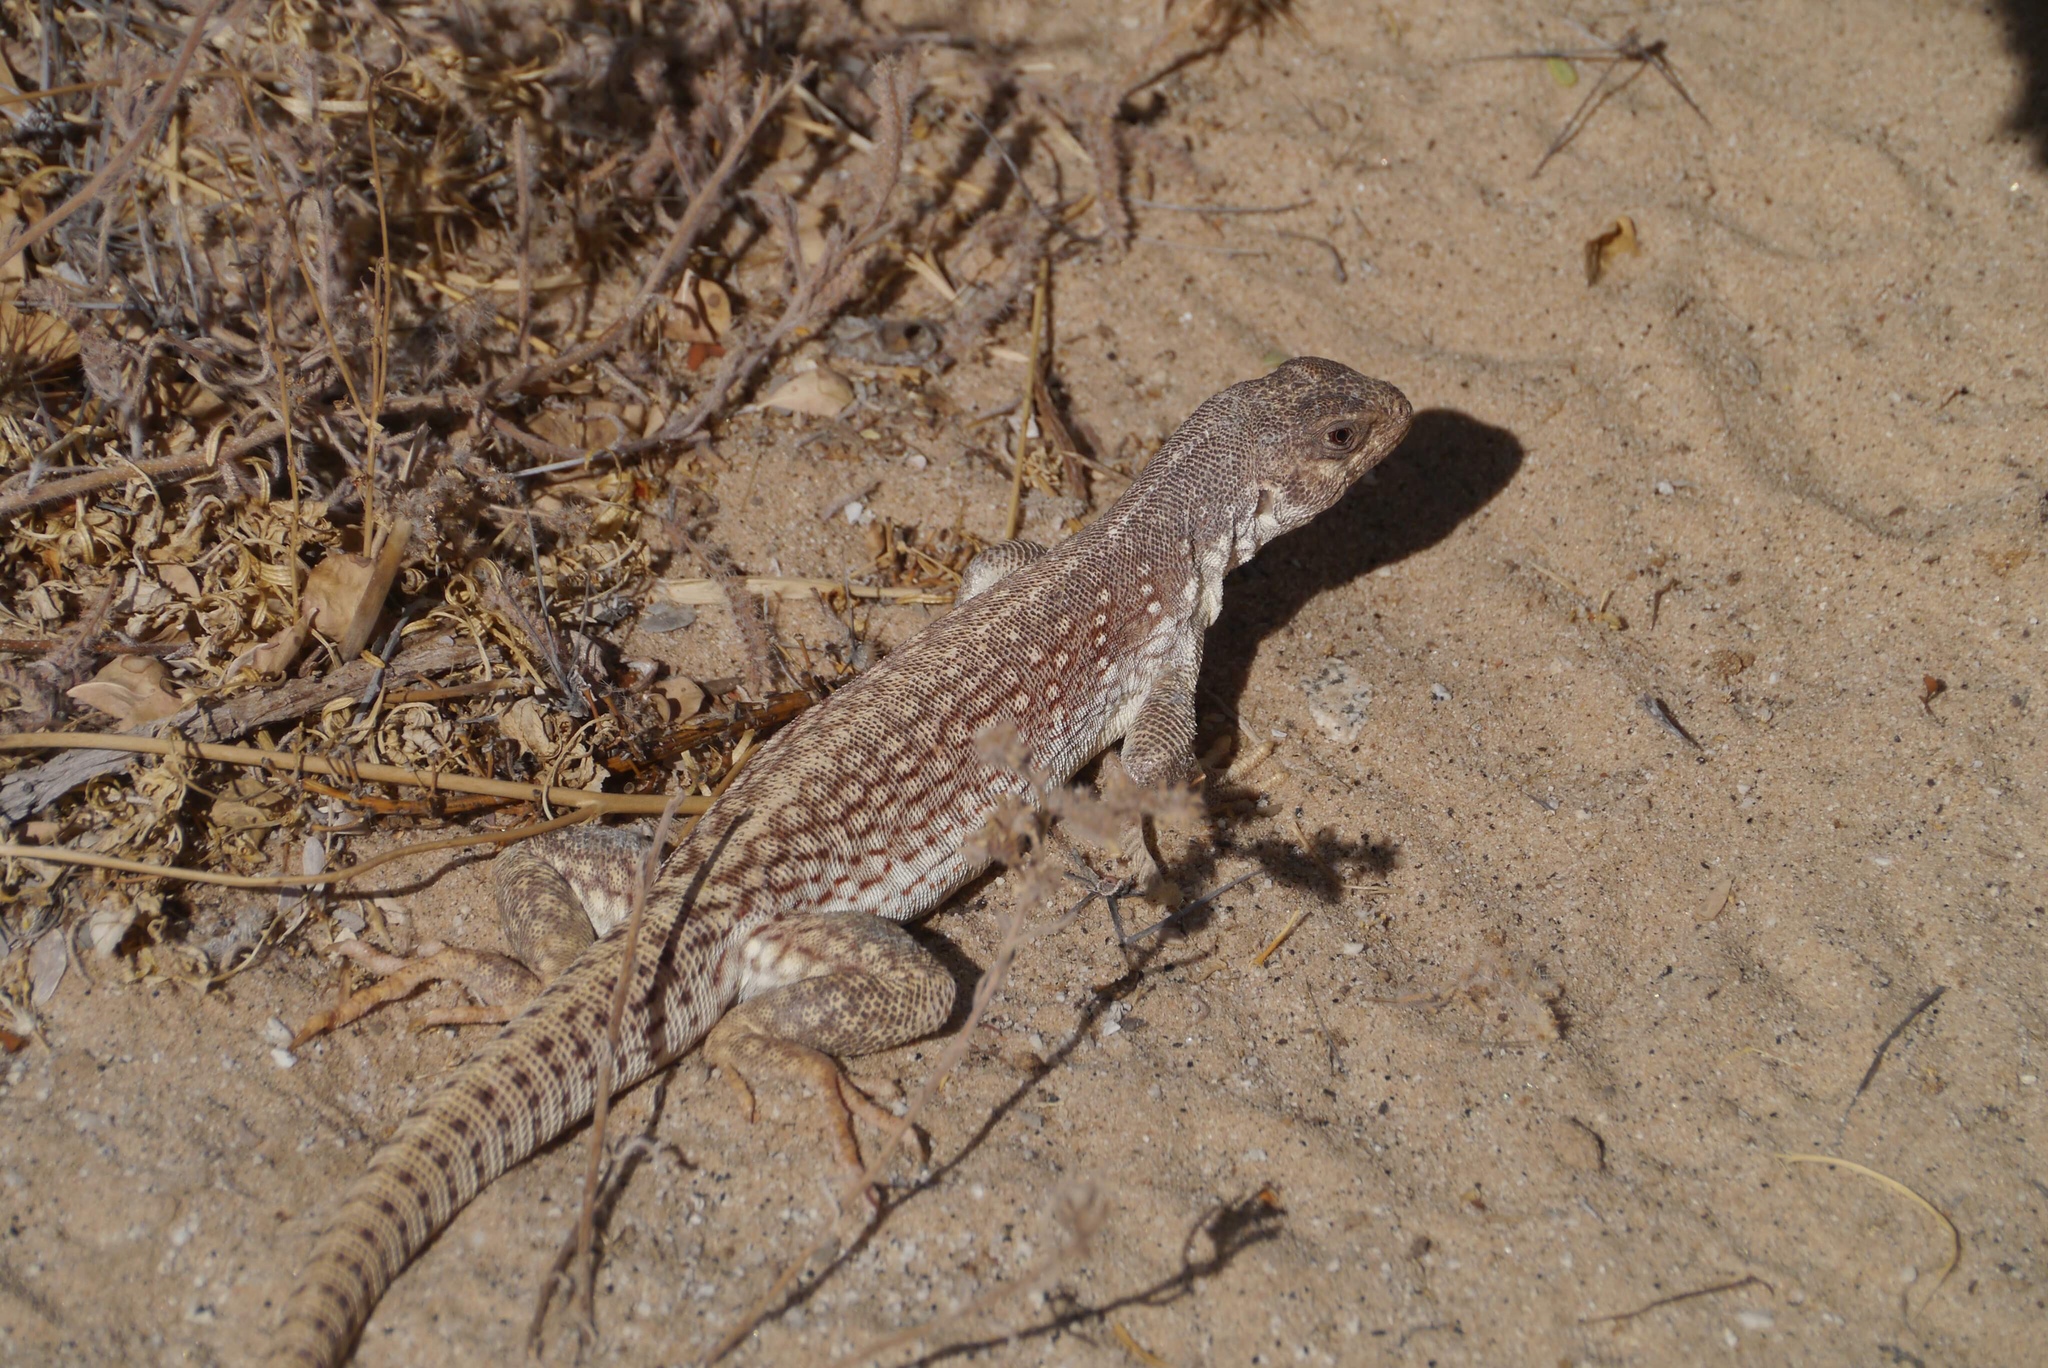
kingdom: Animalia
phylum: Chordata
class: Squamata
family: Iguanidae
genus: Dipsosaurus
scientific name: Dipsosaurus dorsalis
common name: Desert iguana
